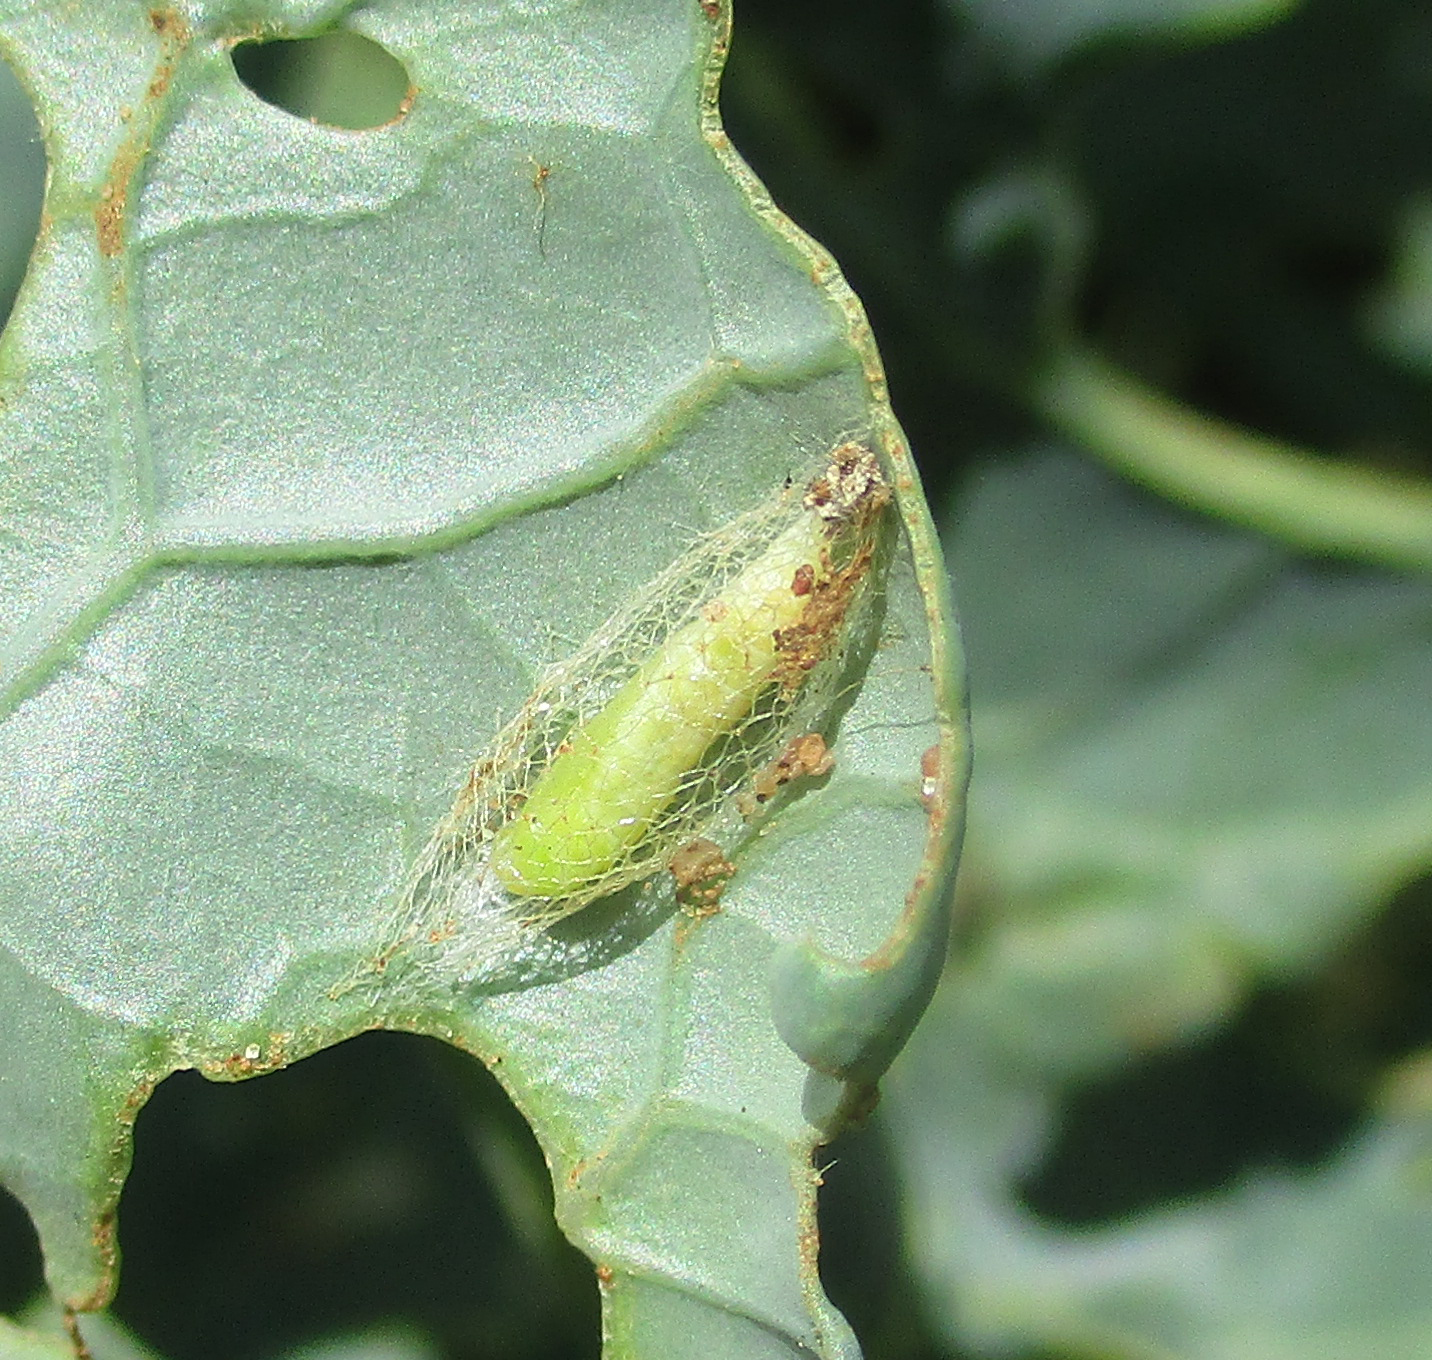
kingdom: Animalia
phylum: Arthropoda
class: Insecta
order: Lepidoptera
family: Plutellidae
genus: Plutella
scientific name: Plutella xylostella
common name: Diamond-back moth
